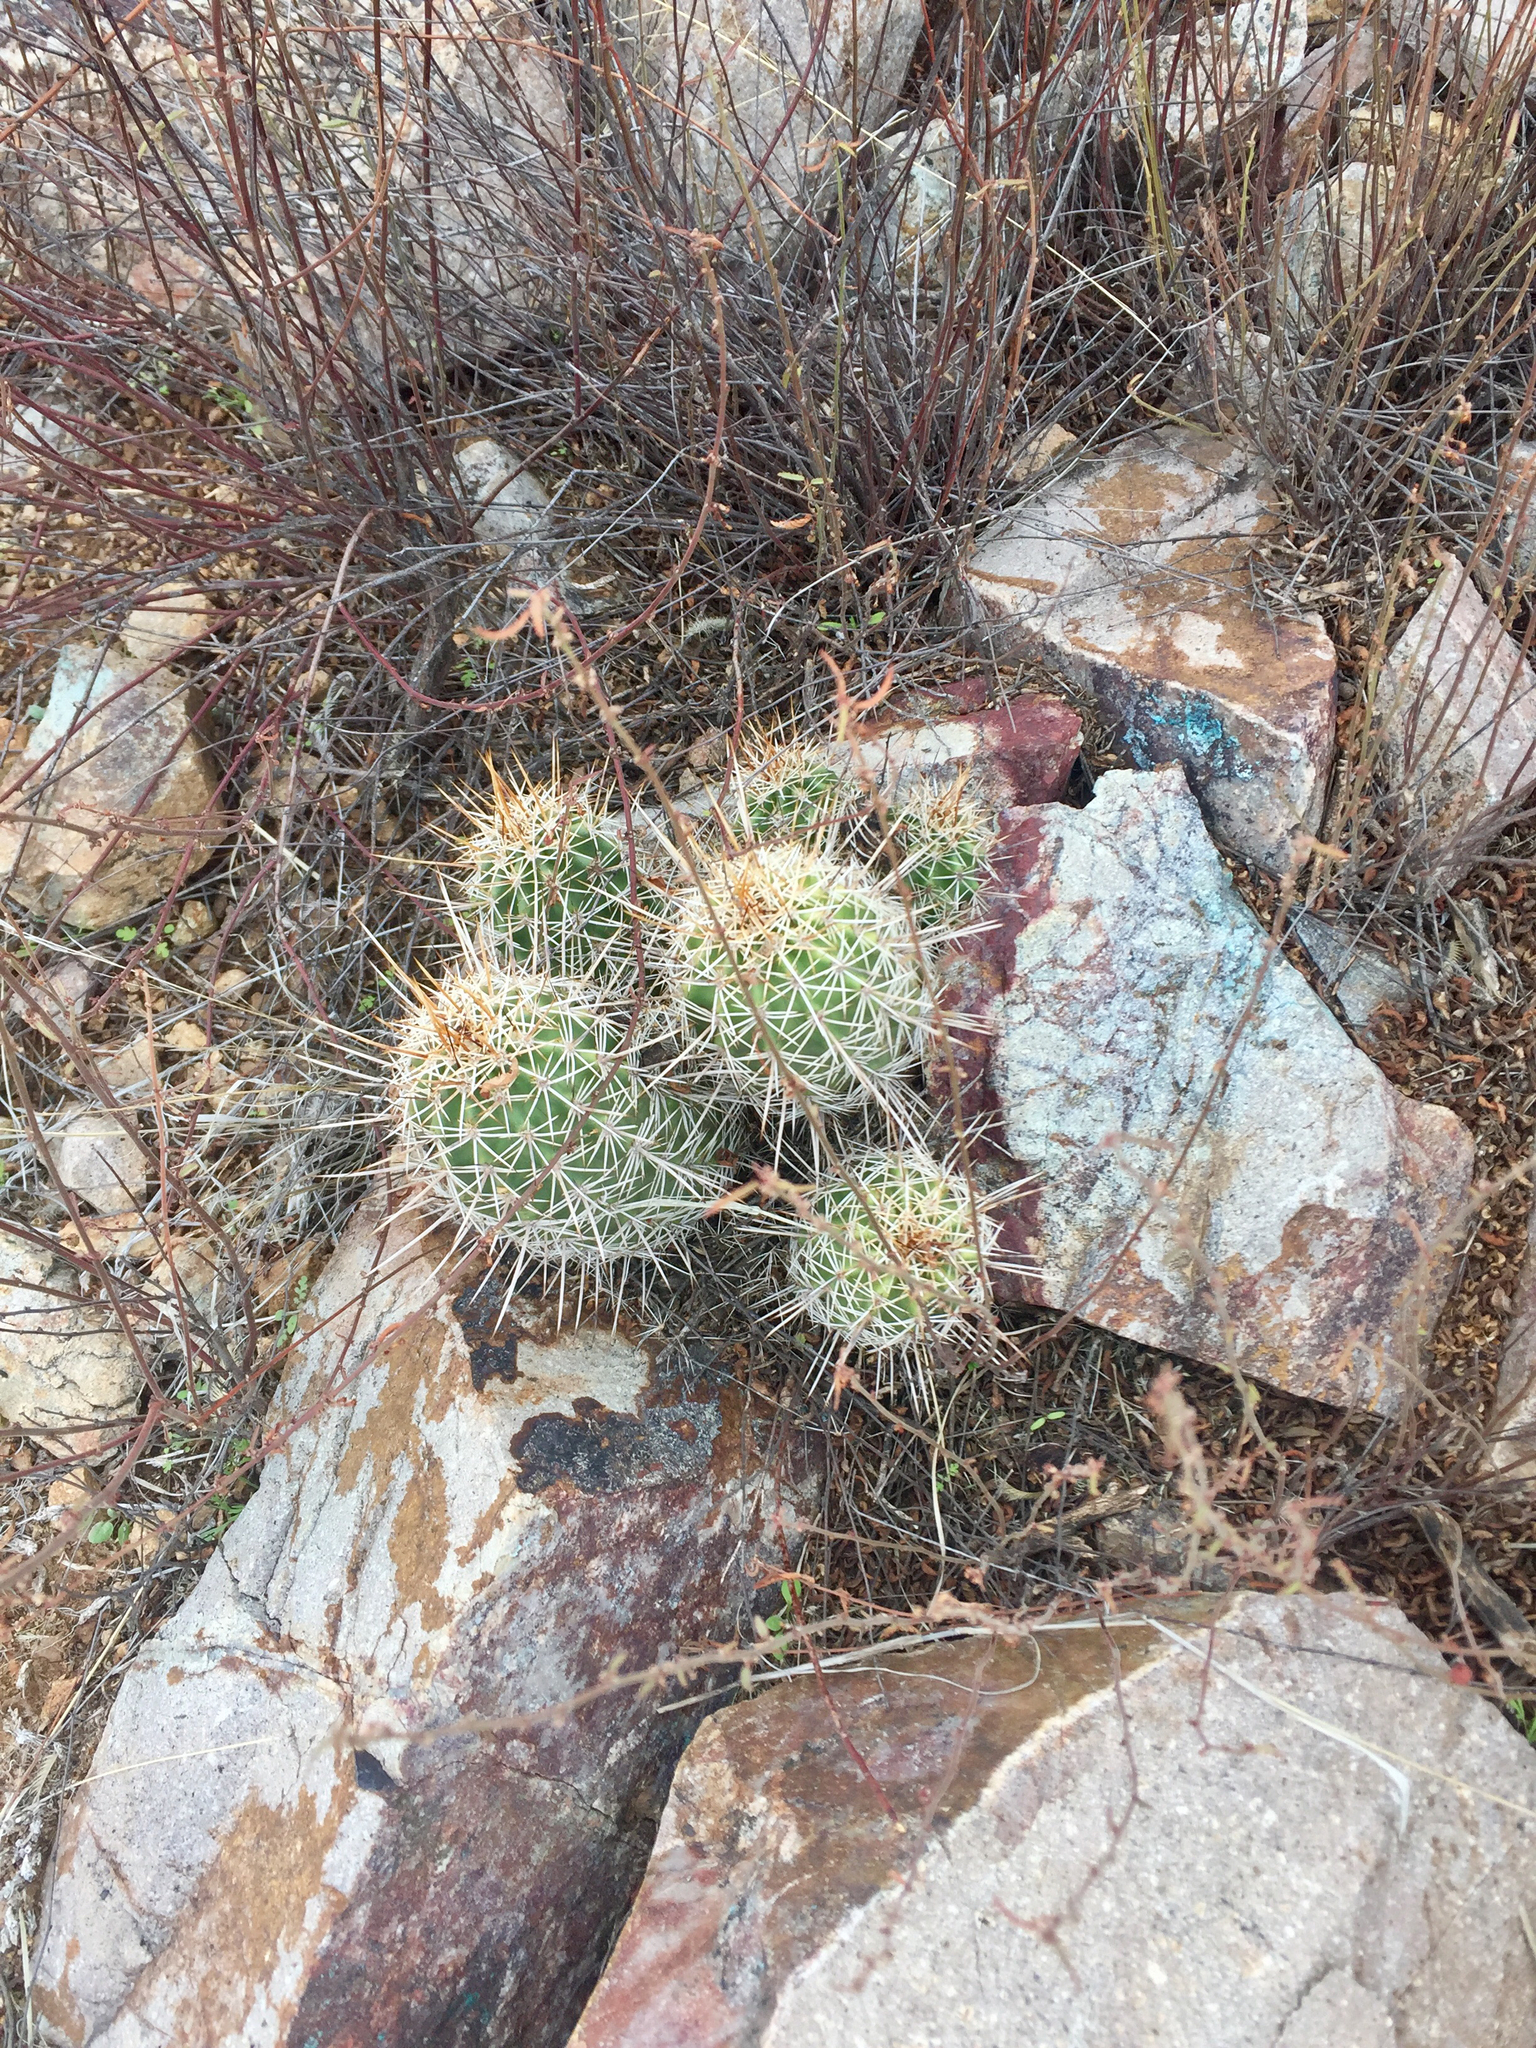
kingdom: Plantae
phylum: Tracheophyta
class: Magnoliopsida
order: Caryophyllales
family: Cactaceae
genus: Echinocereus
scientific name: Echinocereus fasciculatus
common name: Bundle hedgehog
